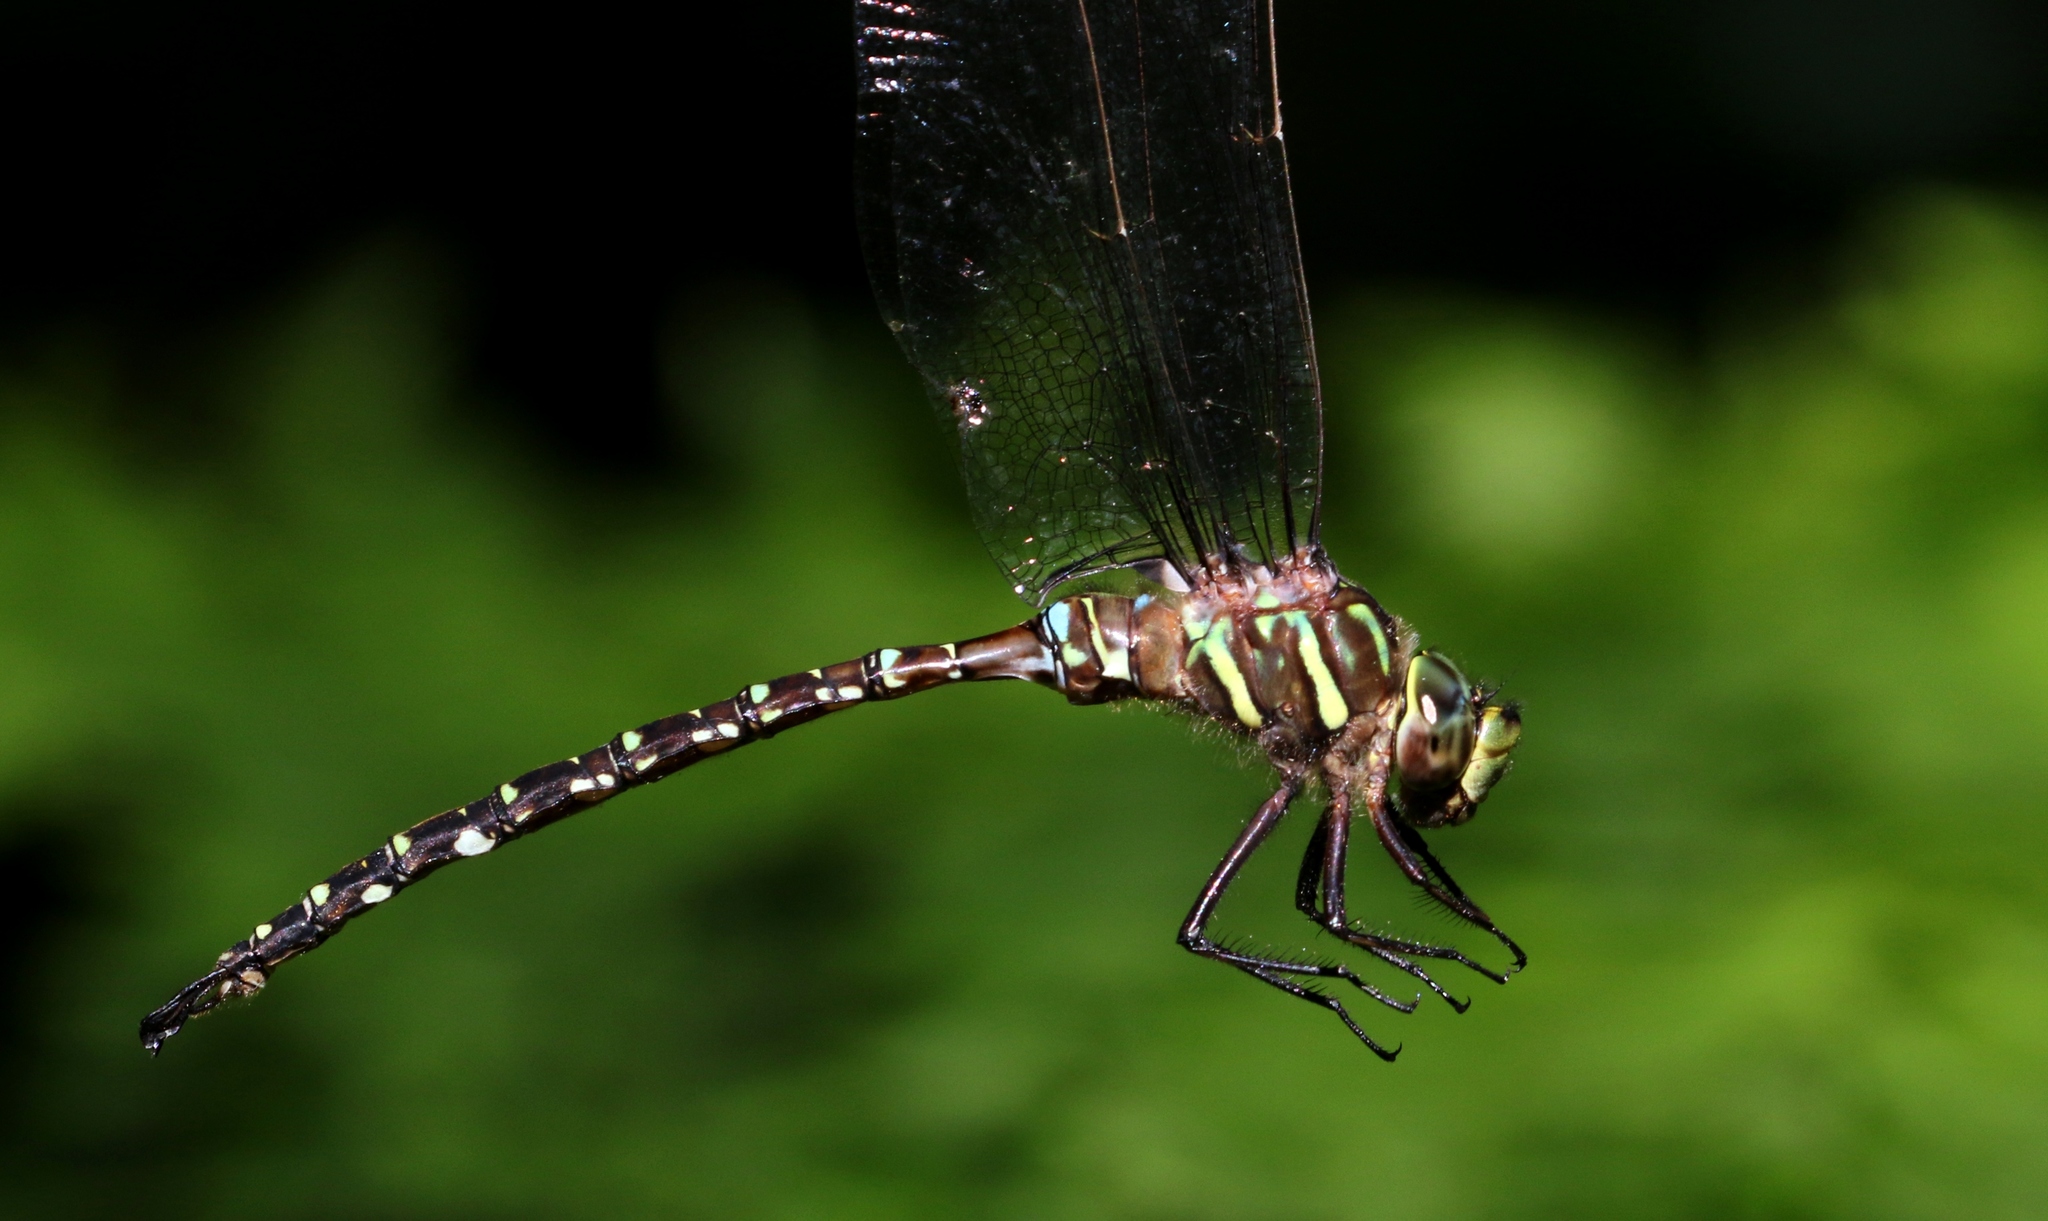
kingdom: Animalia
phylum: Arthropoda
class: Insecta
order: Odonata
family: Aeshnidae
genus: Aeshna
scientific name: Aeshna umbrosa
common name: Shadow darner
